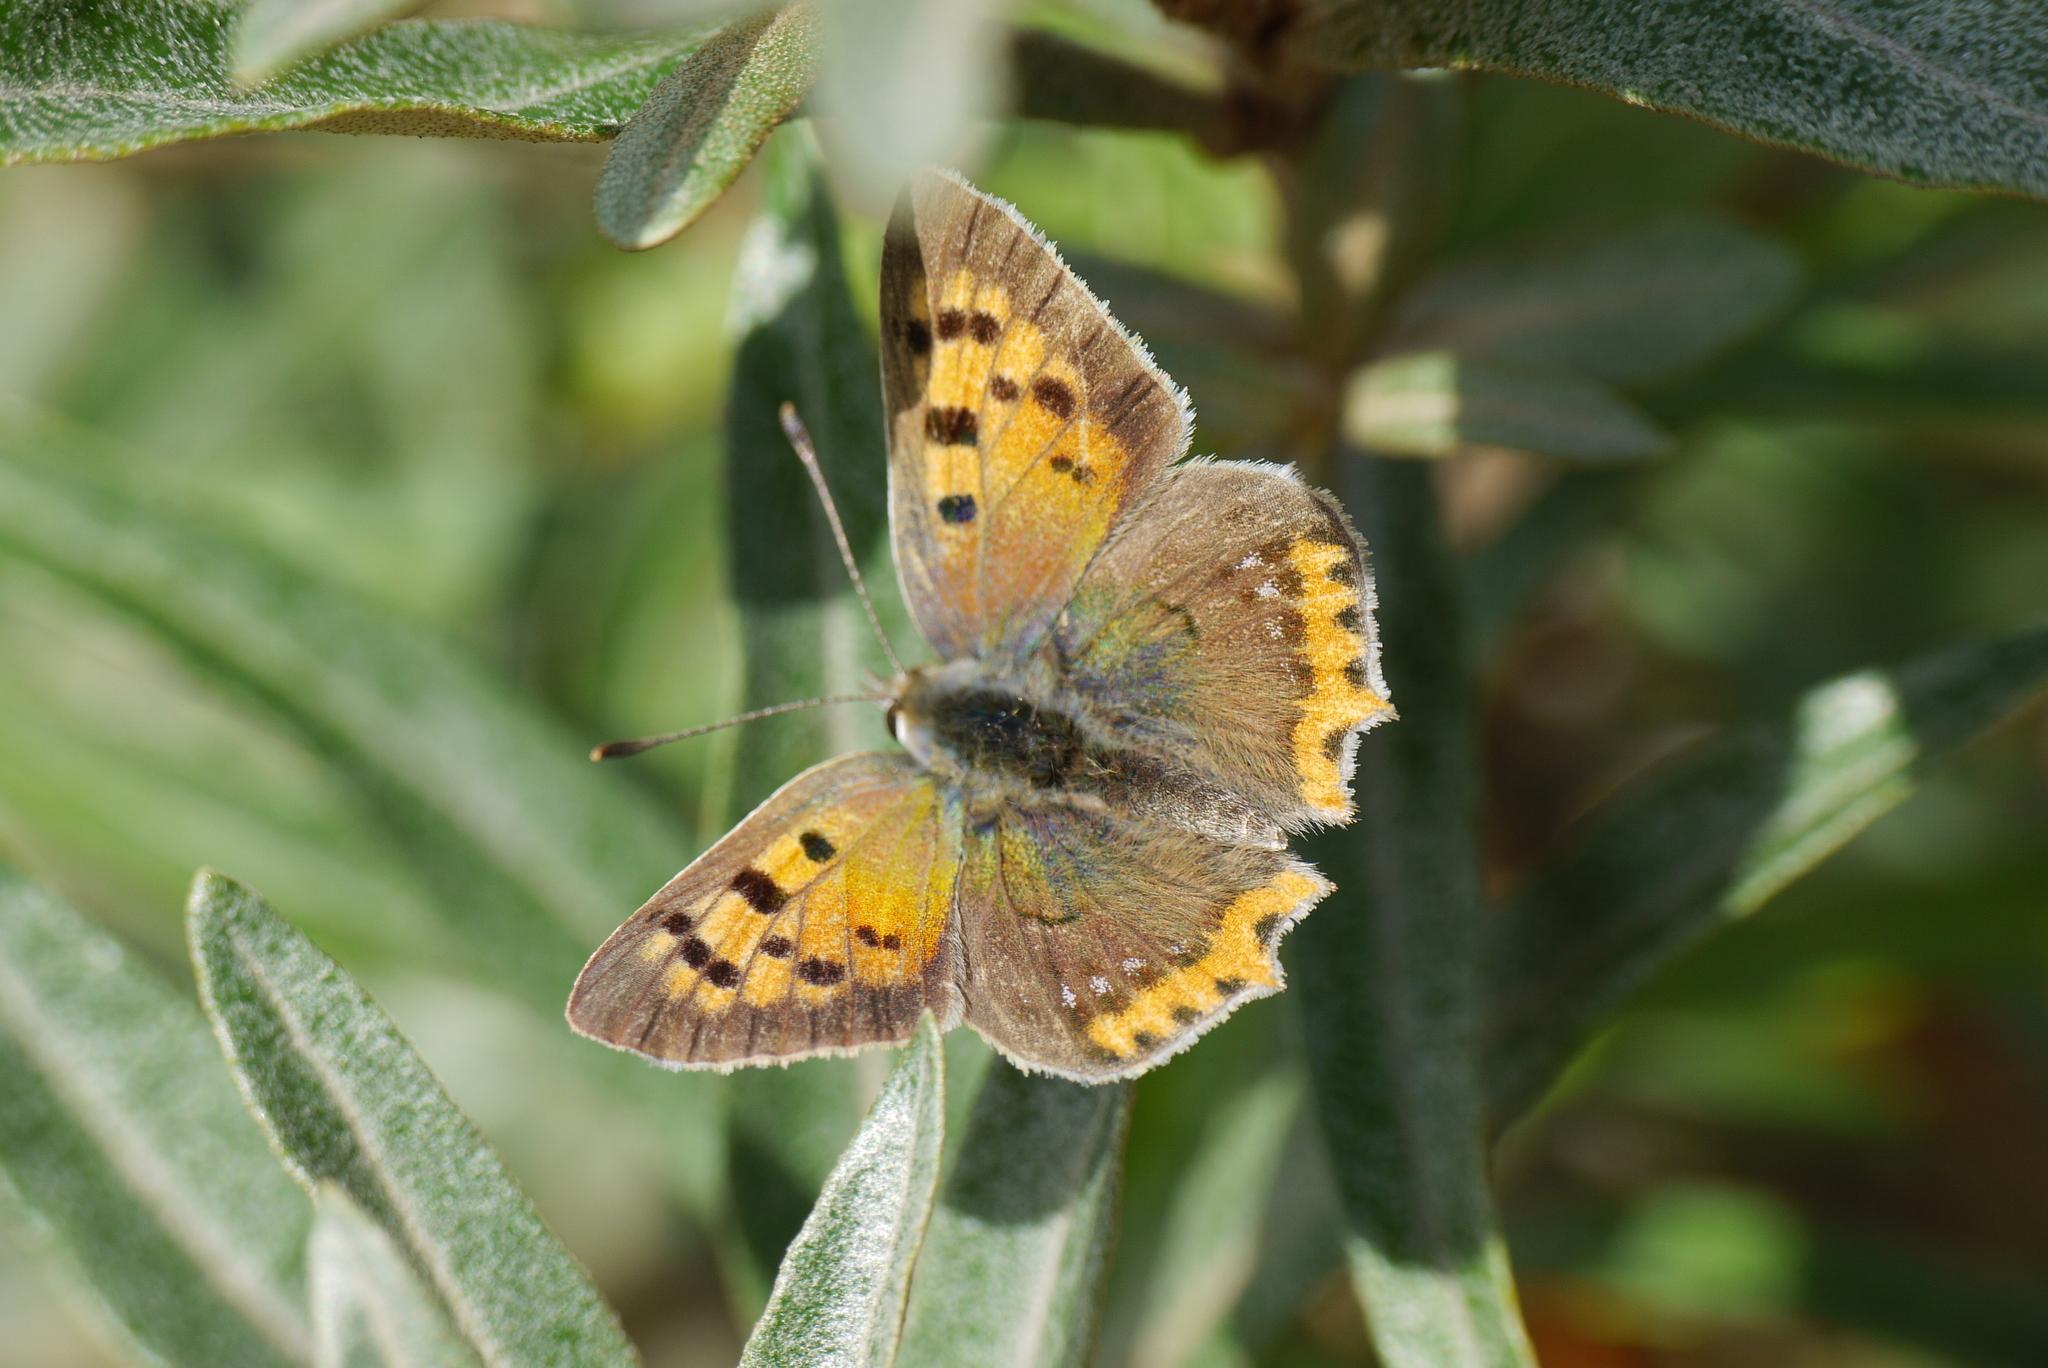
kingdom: Animalia
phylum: Arthropoda
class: Insecta
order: Lepidoptera
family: Lycaenidae
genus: Lycaena
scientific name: Lycaena phlaeas
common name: Small copper
